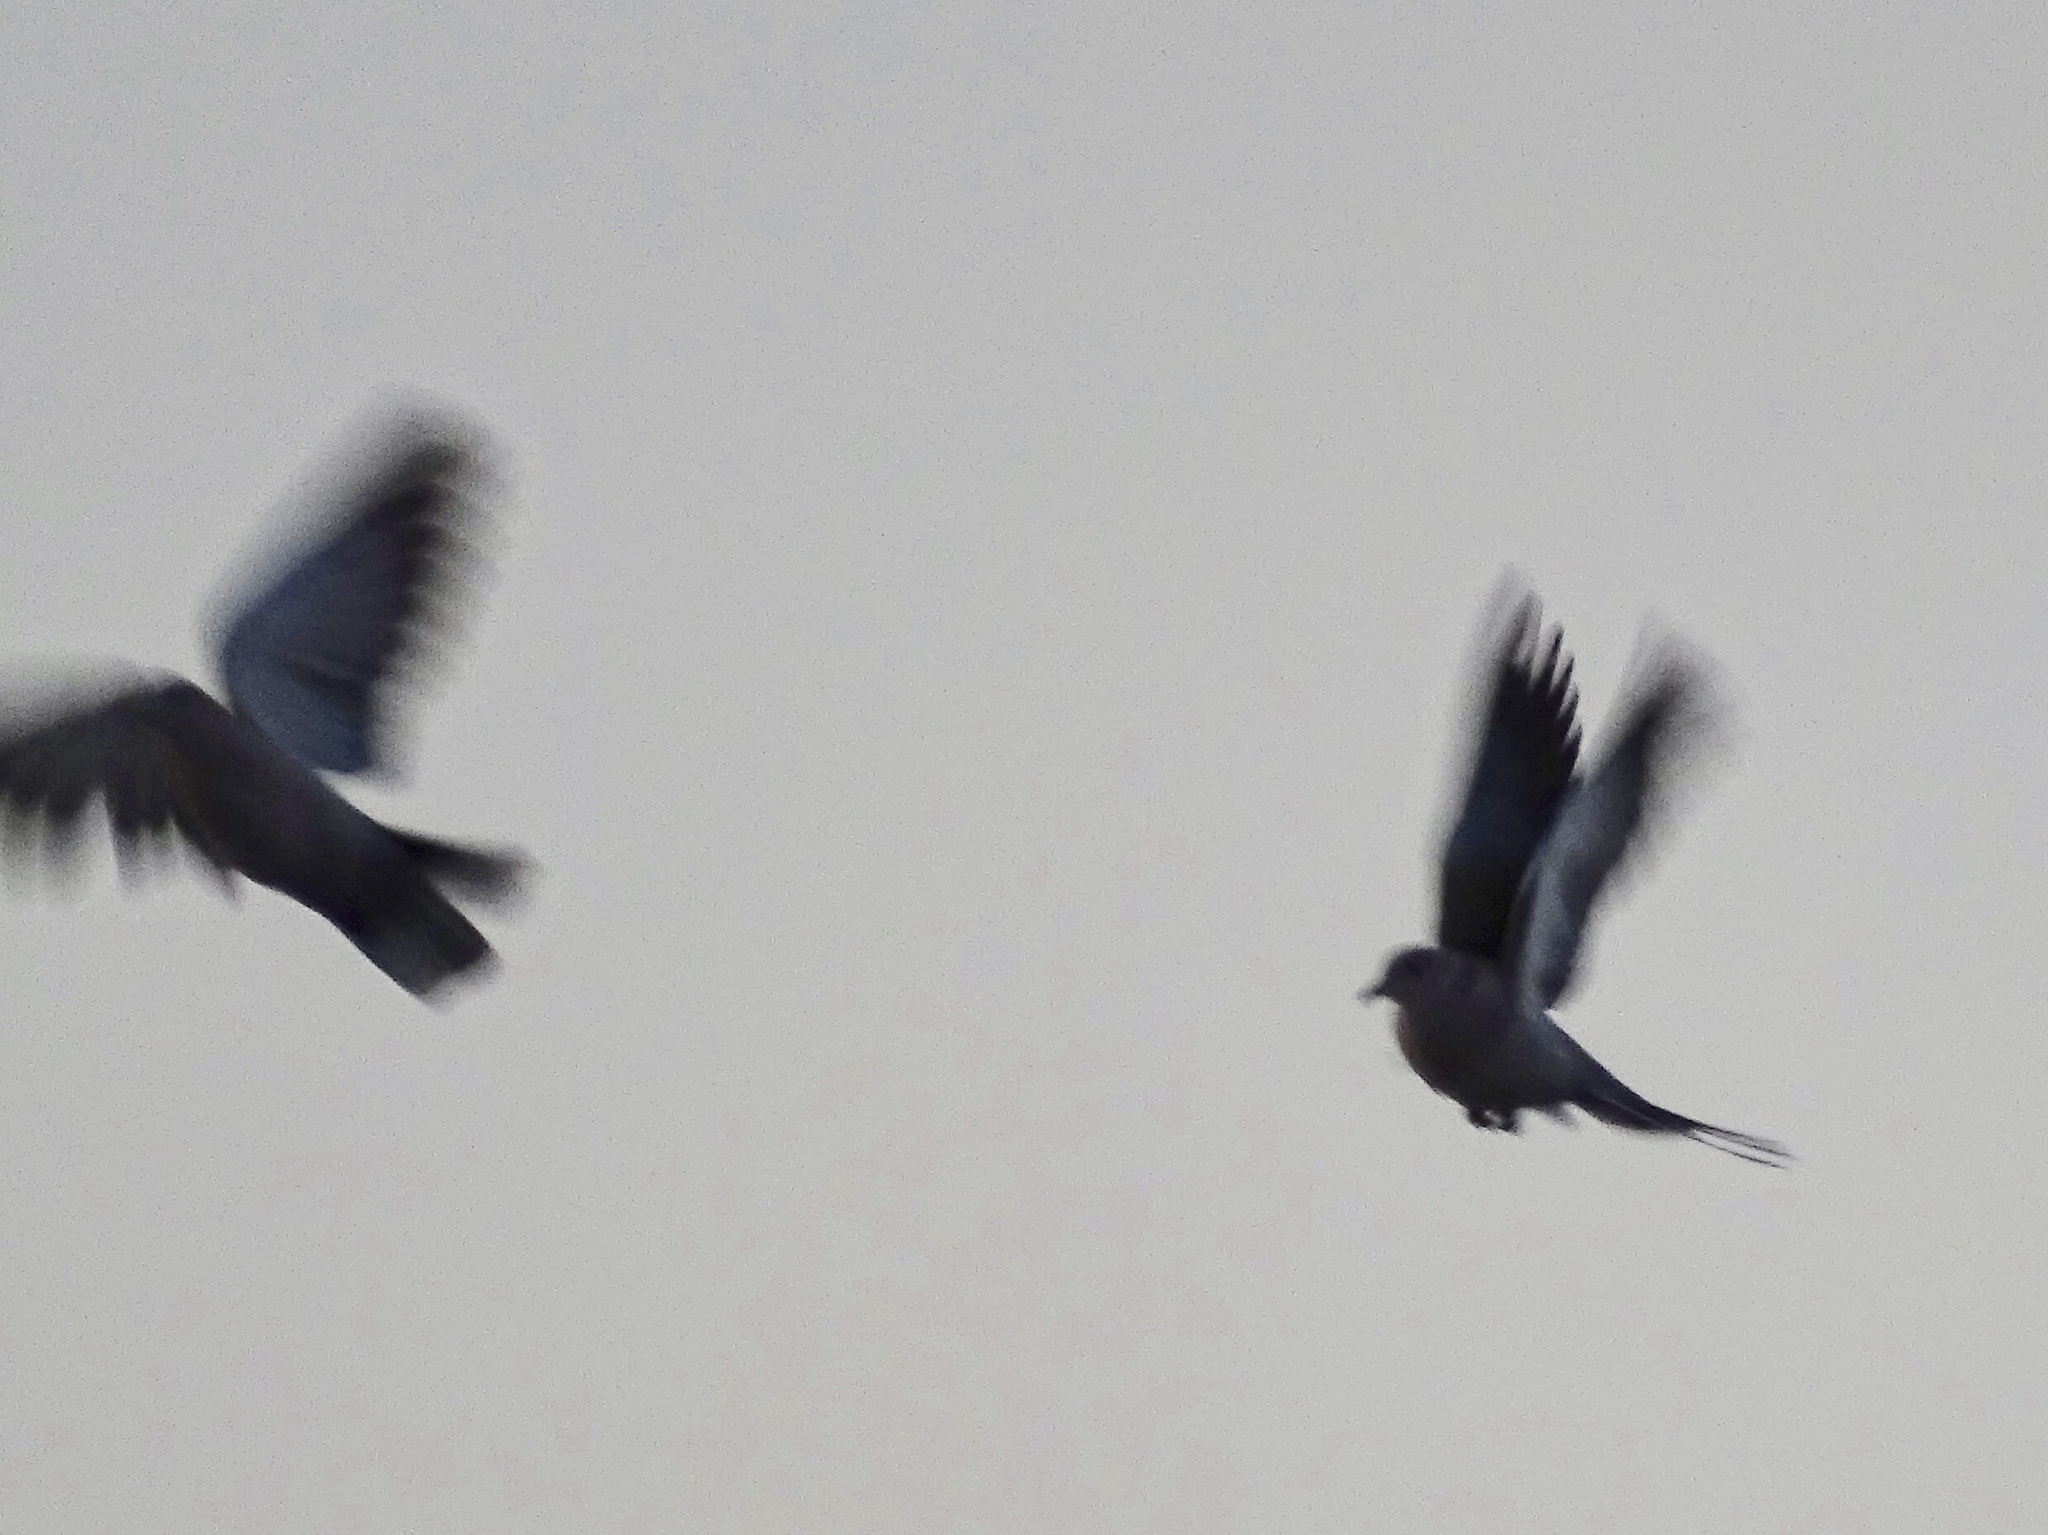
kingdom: Animalia
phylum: Chordata
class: Aves
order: Columbiformes
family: Columbidae
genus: Streptopelia
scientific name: Streptopelia decaocto
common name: Eurasian collared dove
